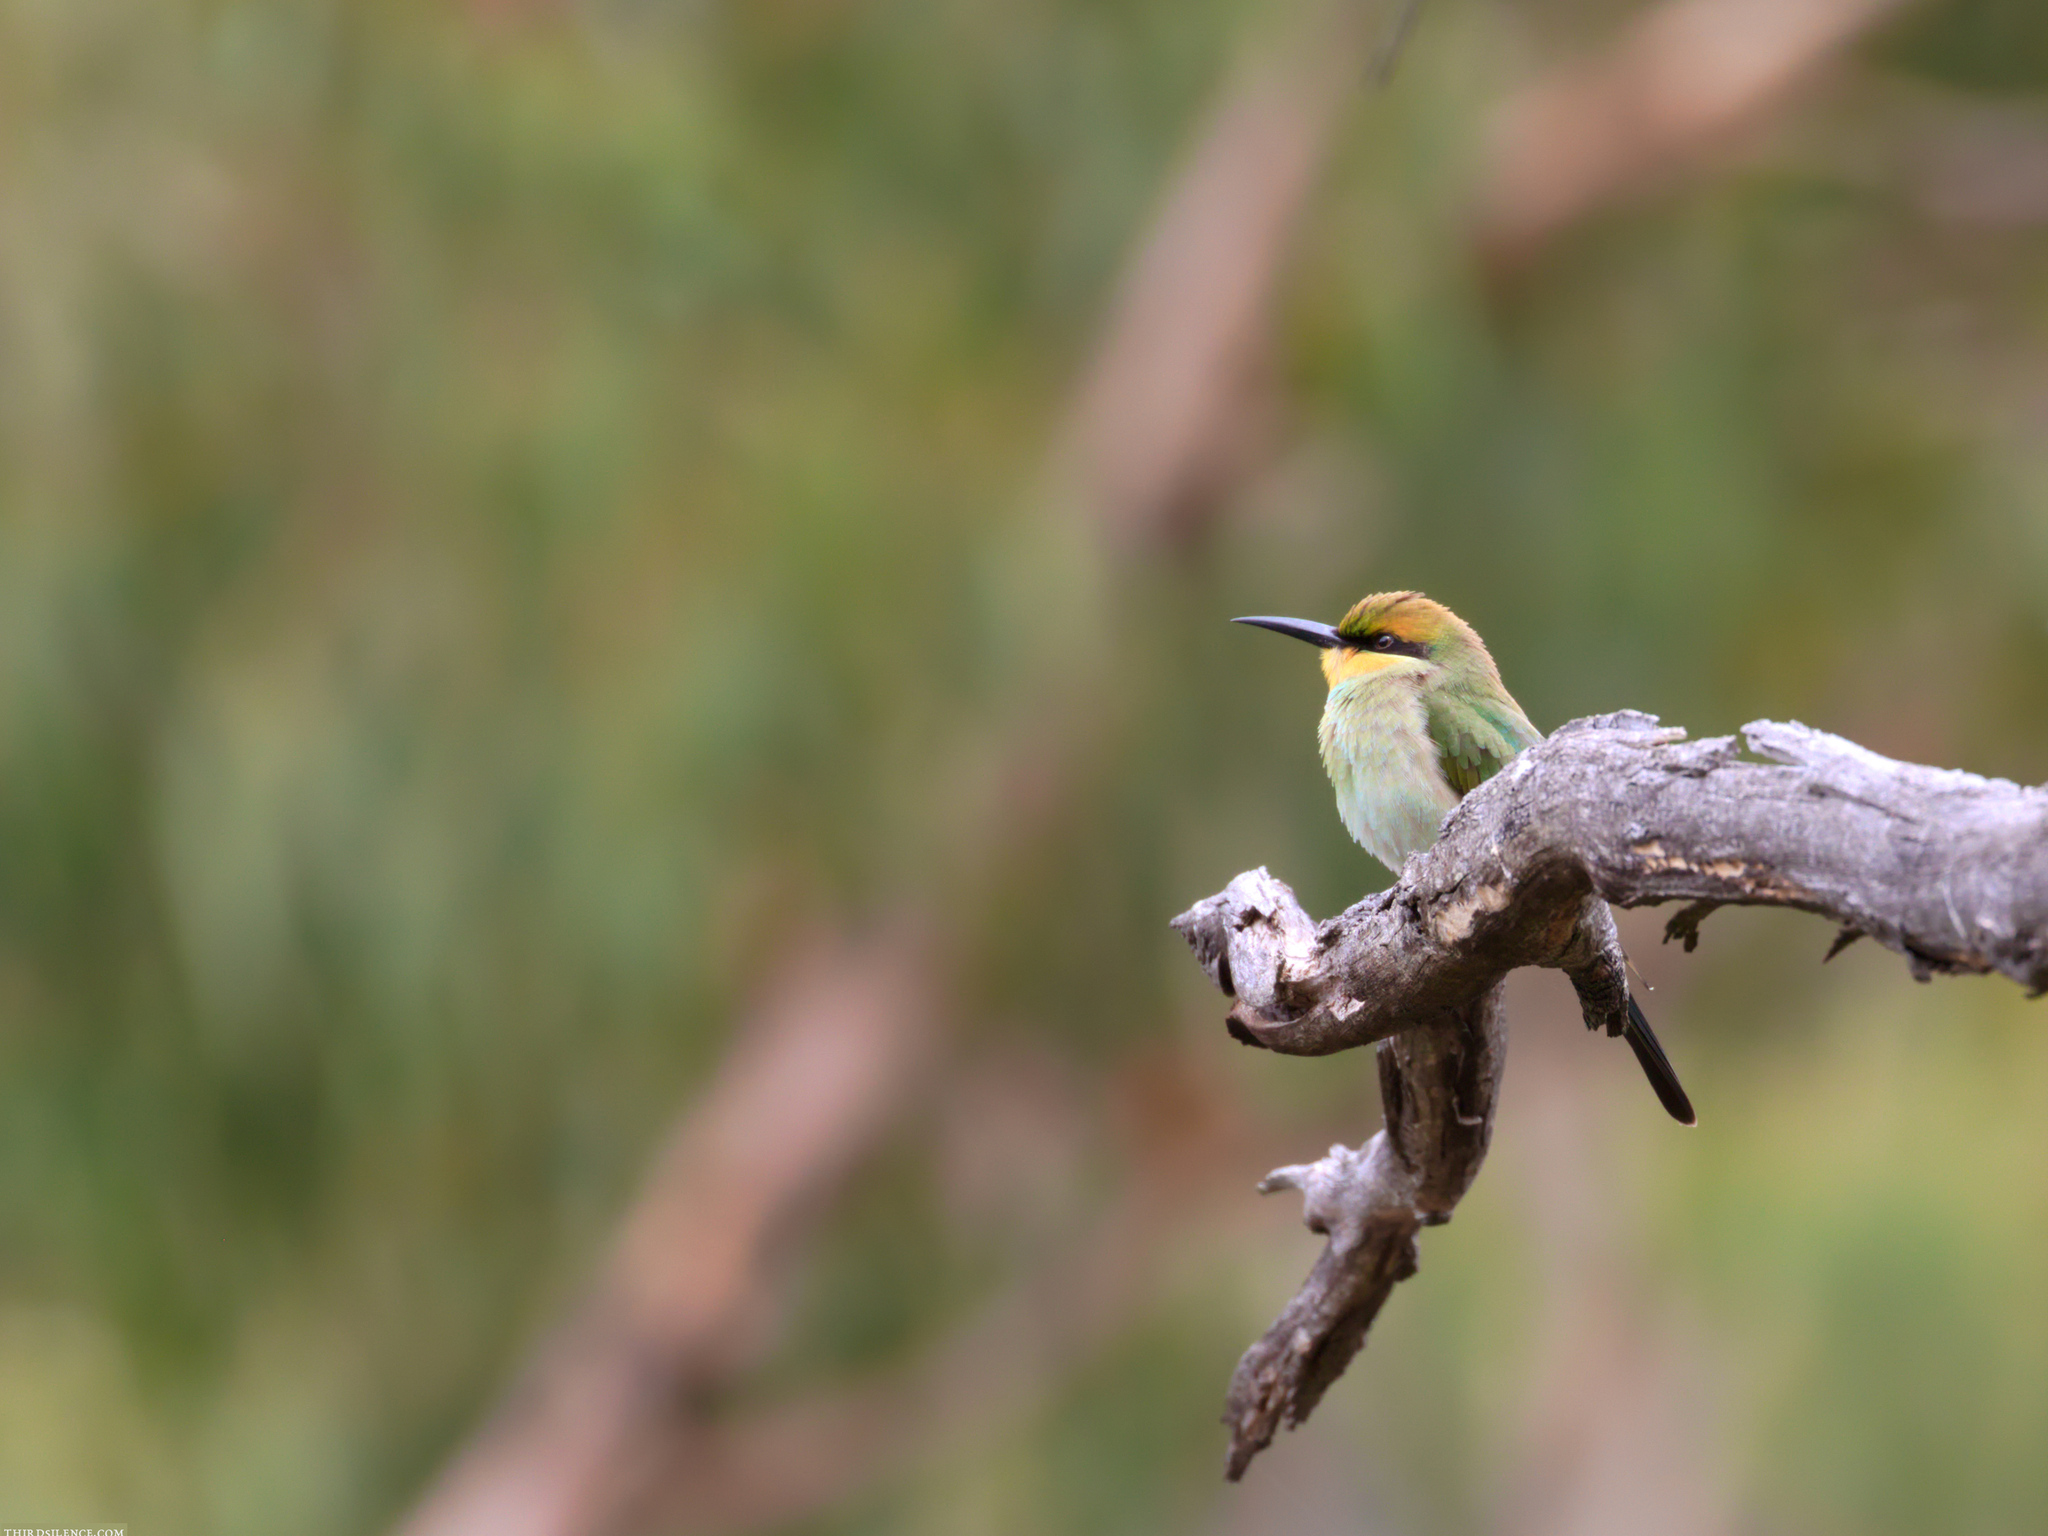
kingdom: Animalia
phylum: Chordata
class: Aves
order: Coraciiformes
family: Meropidae
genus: Merops
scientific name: Merops ornatus
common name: Rainbow bee-eater
